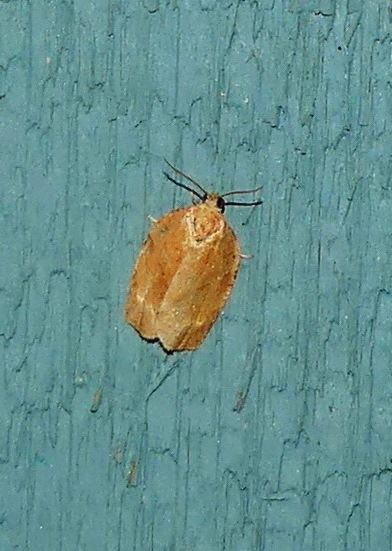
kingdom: Animalia
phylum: Arthropoda
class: Insecta
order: Lepidoptera
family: Tortricidae
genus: Choristoneura
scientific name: Choristoneura rosaceana
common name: Oblique-banded leafroller moth
